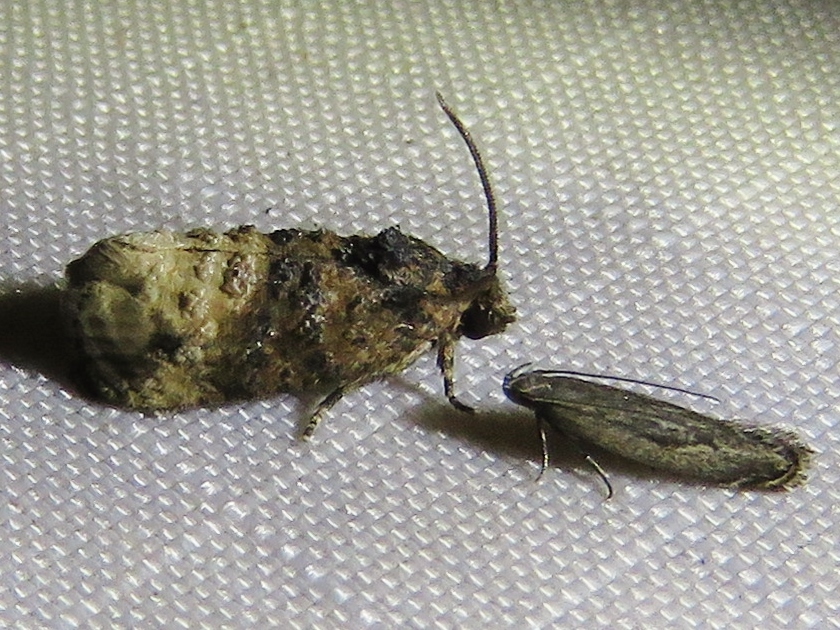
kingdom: Animalia
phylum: Arthropoda
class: Insecta
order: Lepidoptera
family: Tortricidae
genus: Ecdytolopha
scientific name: Ecdytolopha mana
